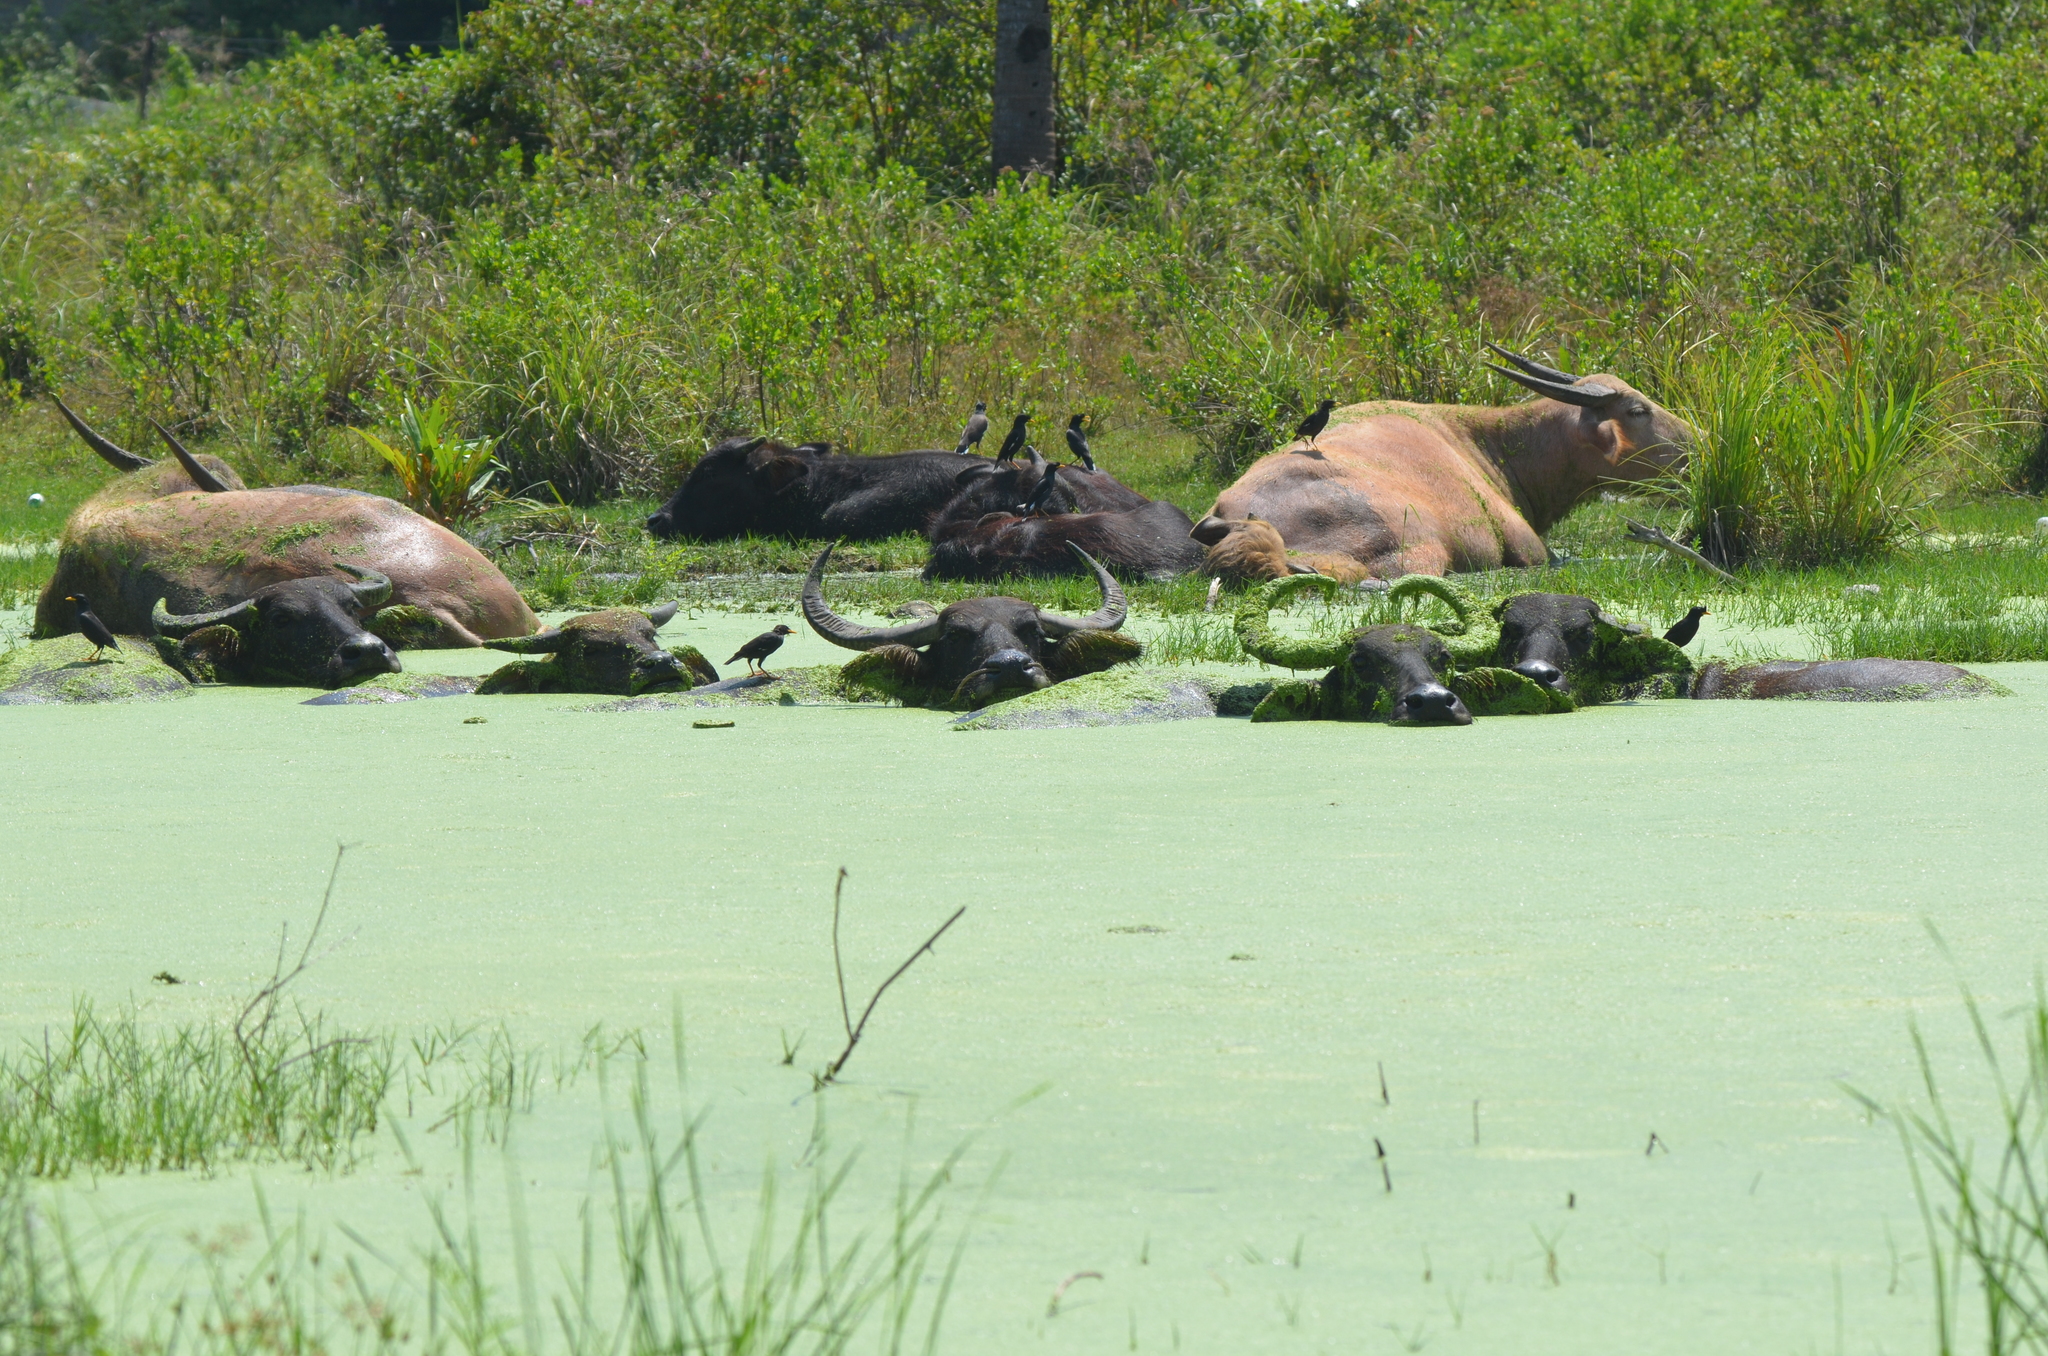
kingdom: Animalia
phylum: Chordata
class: Mammalia
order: Artiodactyla
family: Bovidae
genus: Bubalus
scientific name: Bubalus bubalis
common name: Water buffalo
